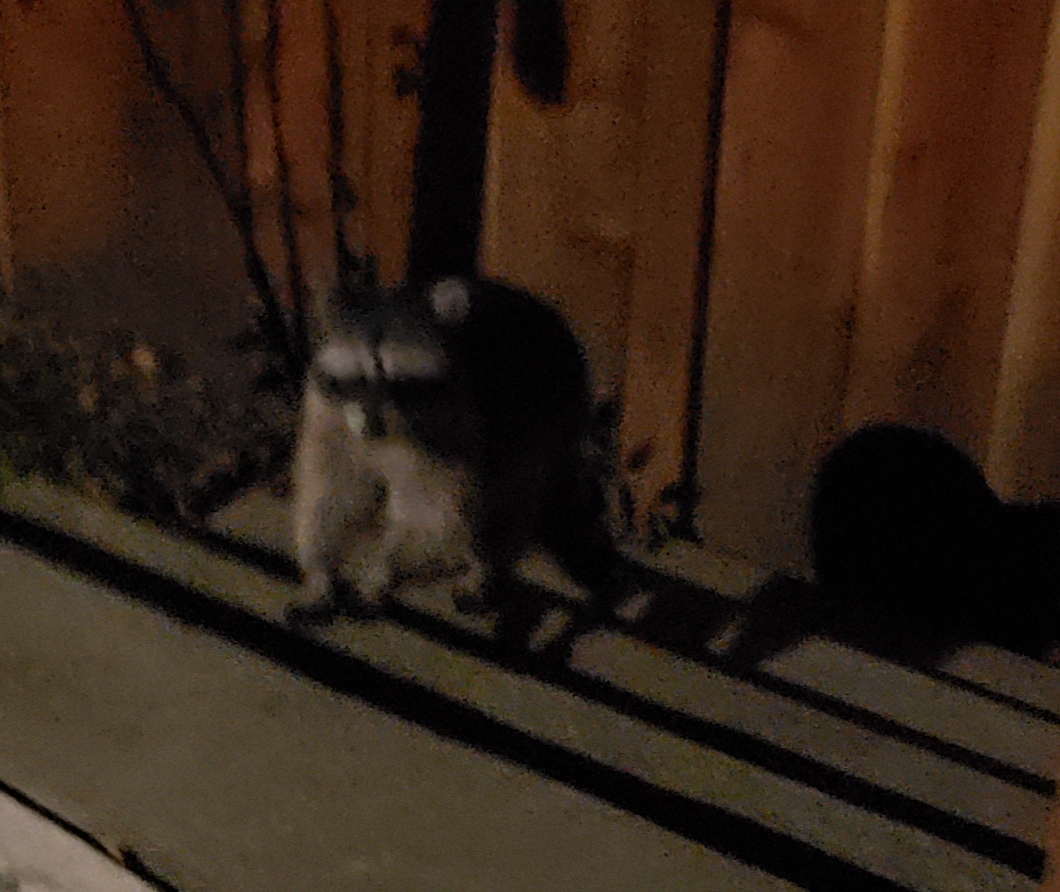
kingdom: Animalia
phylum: Chordata
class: Mammalia
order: Carnivora
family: Procyonidae
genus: Procyon
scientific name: Procyon lotor
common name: Raccoon
